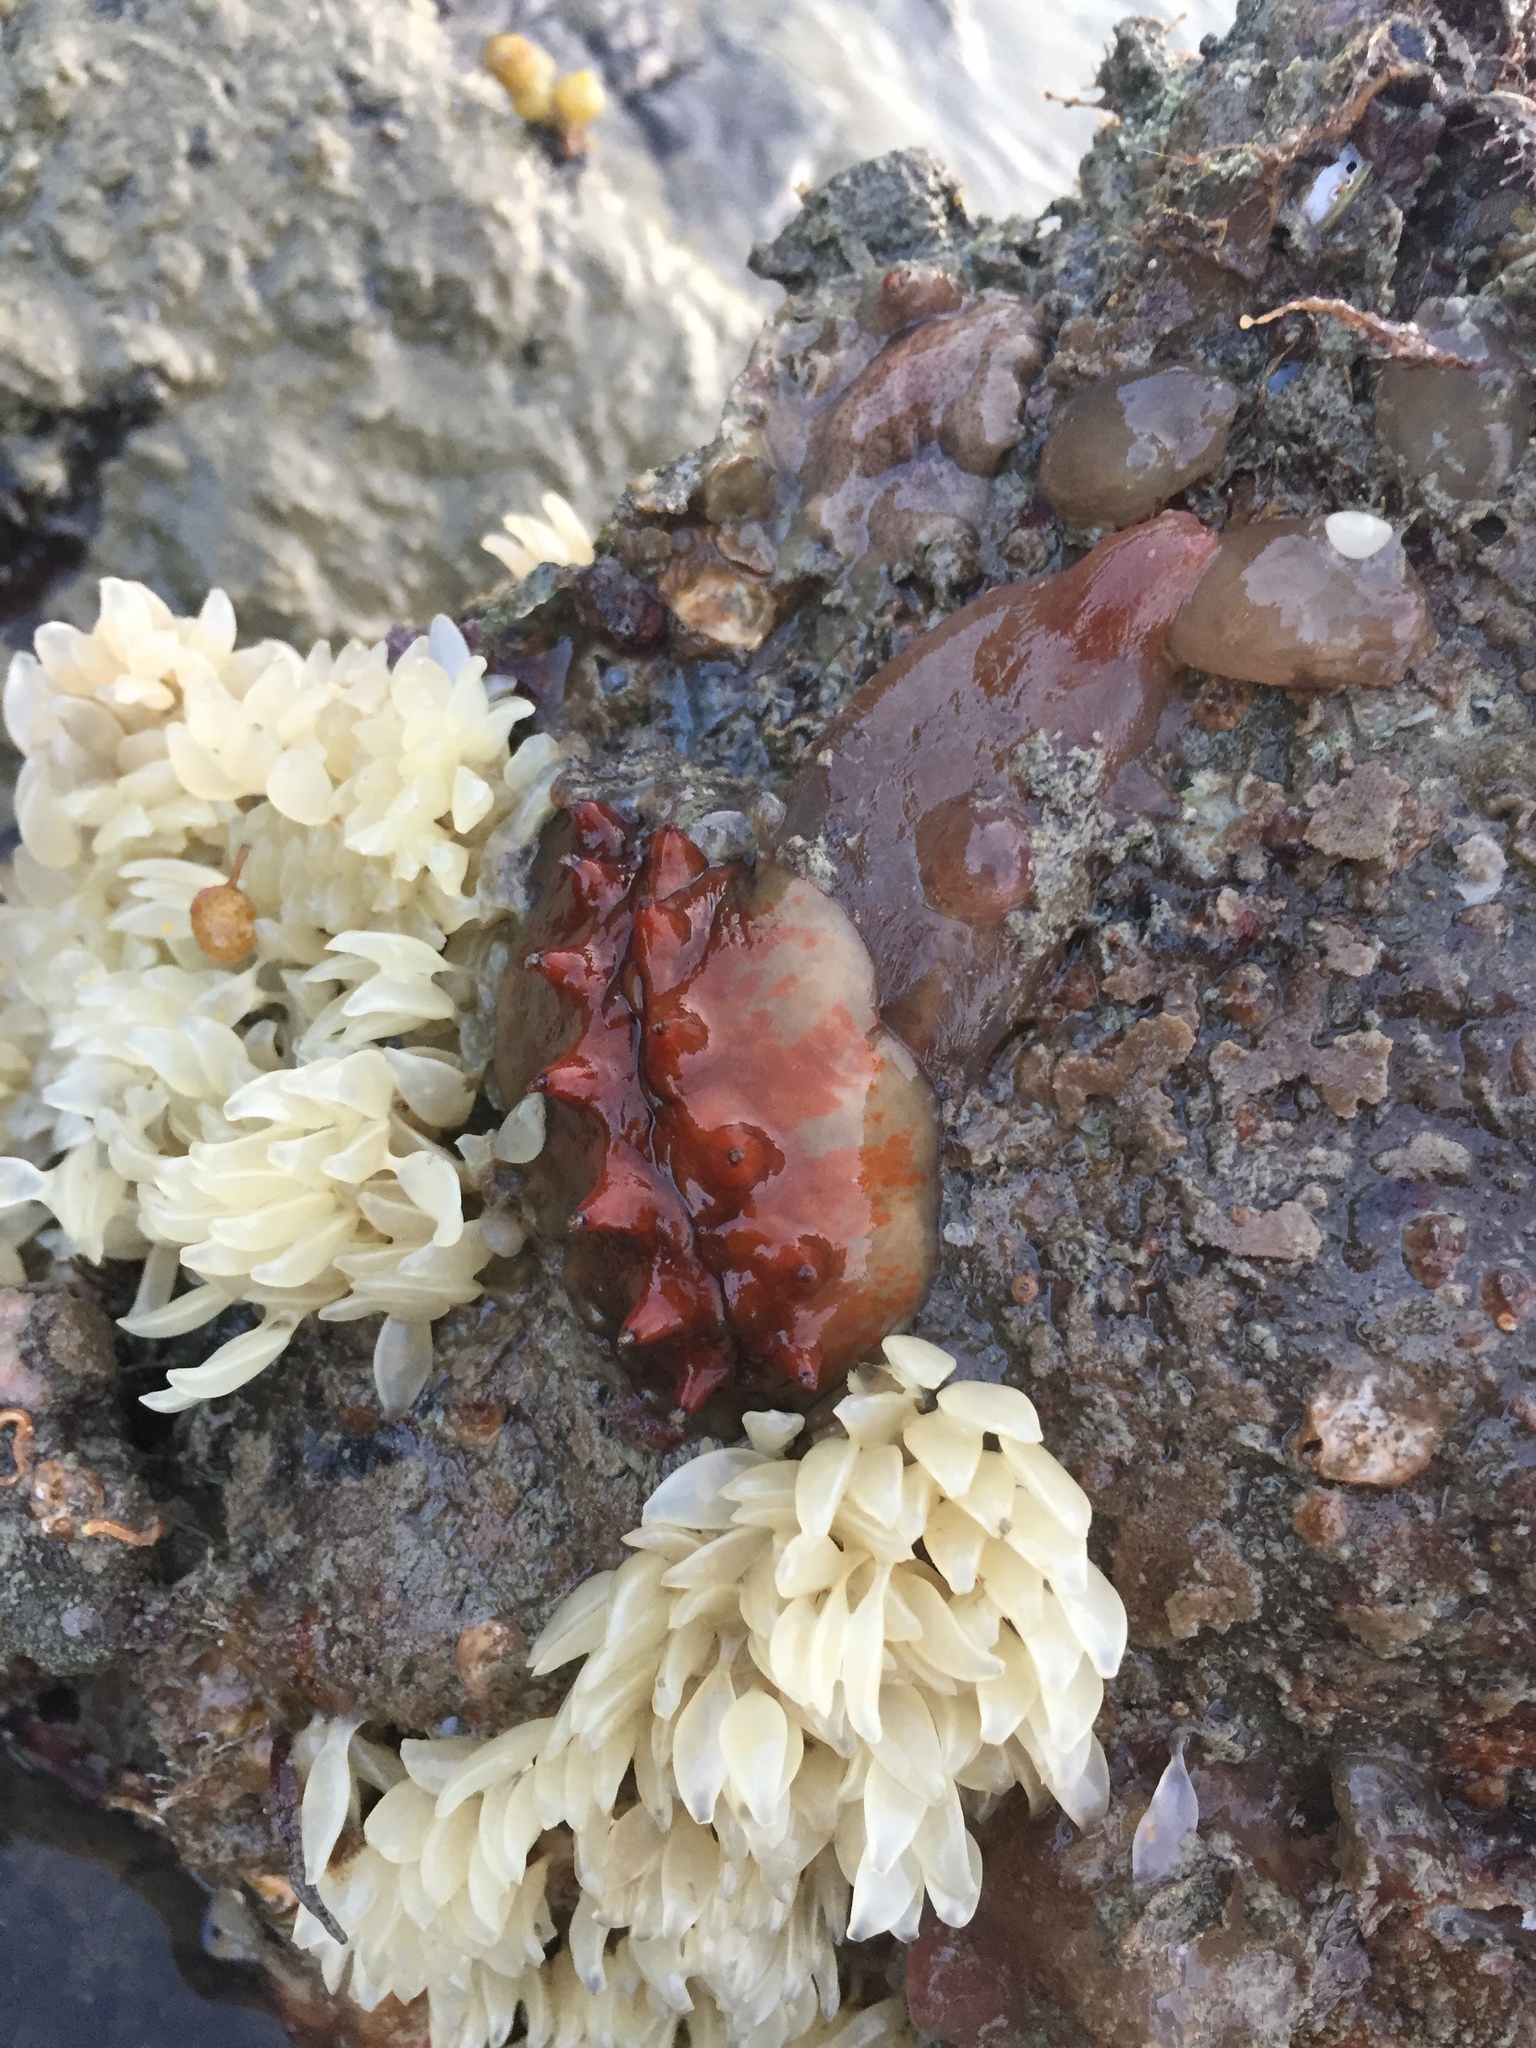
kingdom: Animalia
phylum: Mollusca
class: Polyplacophora
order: Chitonida
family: Acanthochitonidae
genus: Cryptoconchus
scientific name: Cryptoconchus porosus
